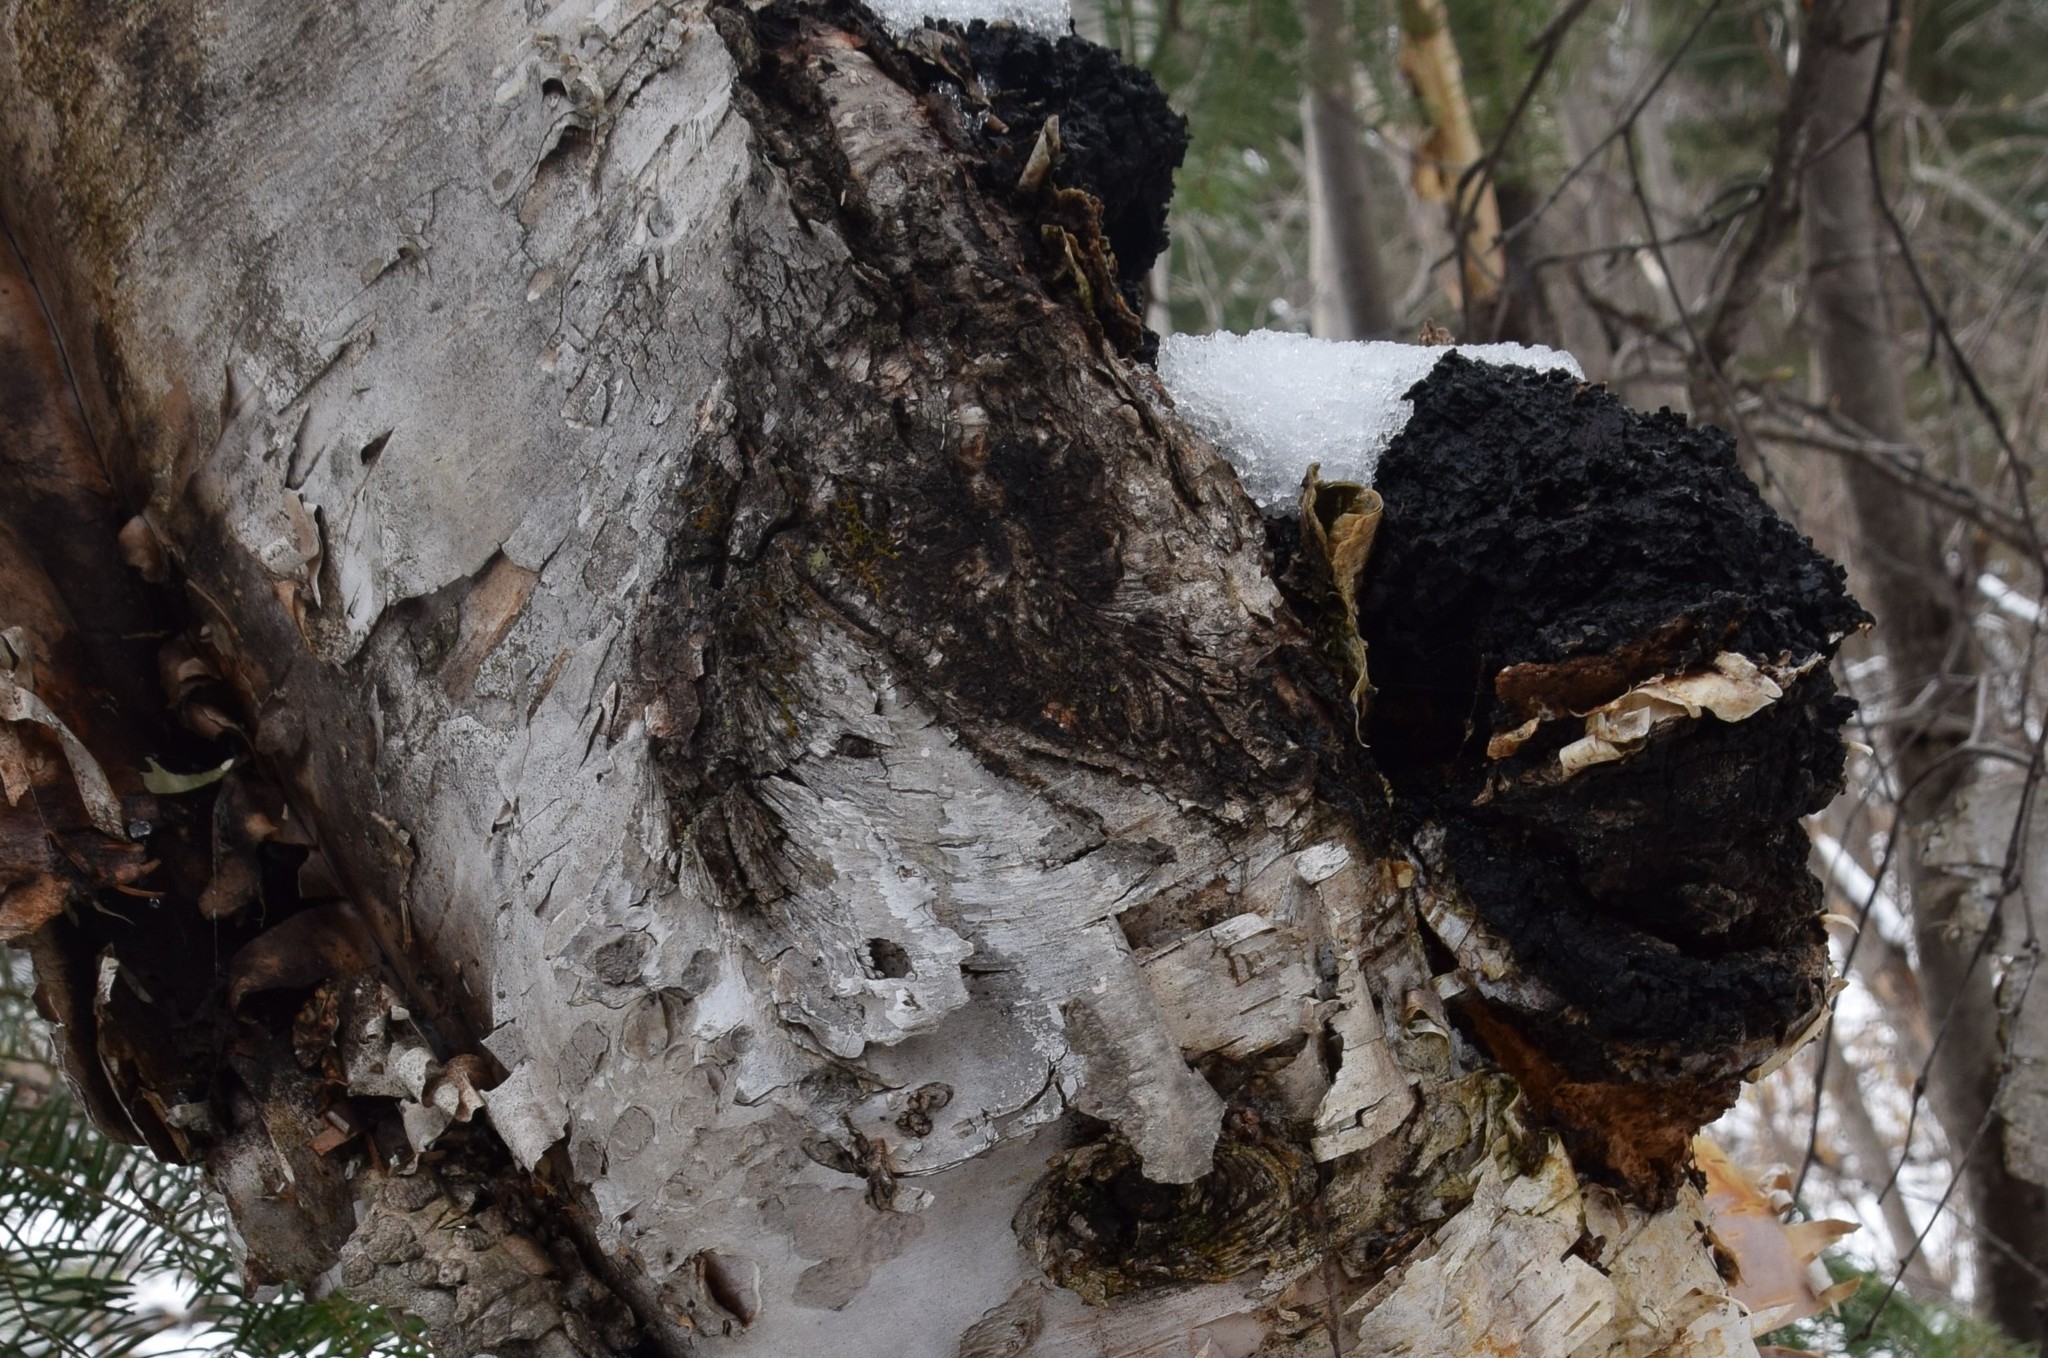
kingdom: Fungi
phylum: Basidiomycota
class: Agaricomycetes
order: Hymenochaetales
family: Hymenochaetaceae
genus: Inonotus
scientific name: Inonotus obliquus
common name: Chaga
